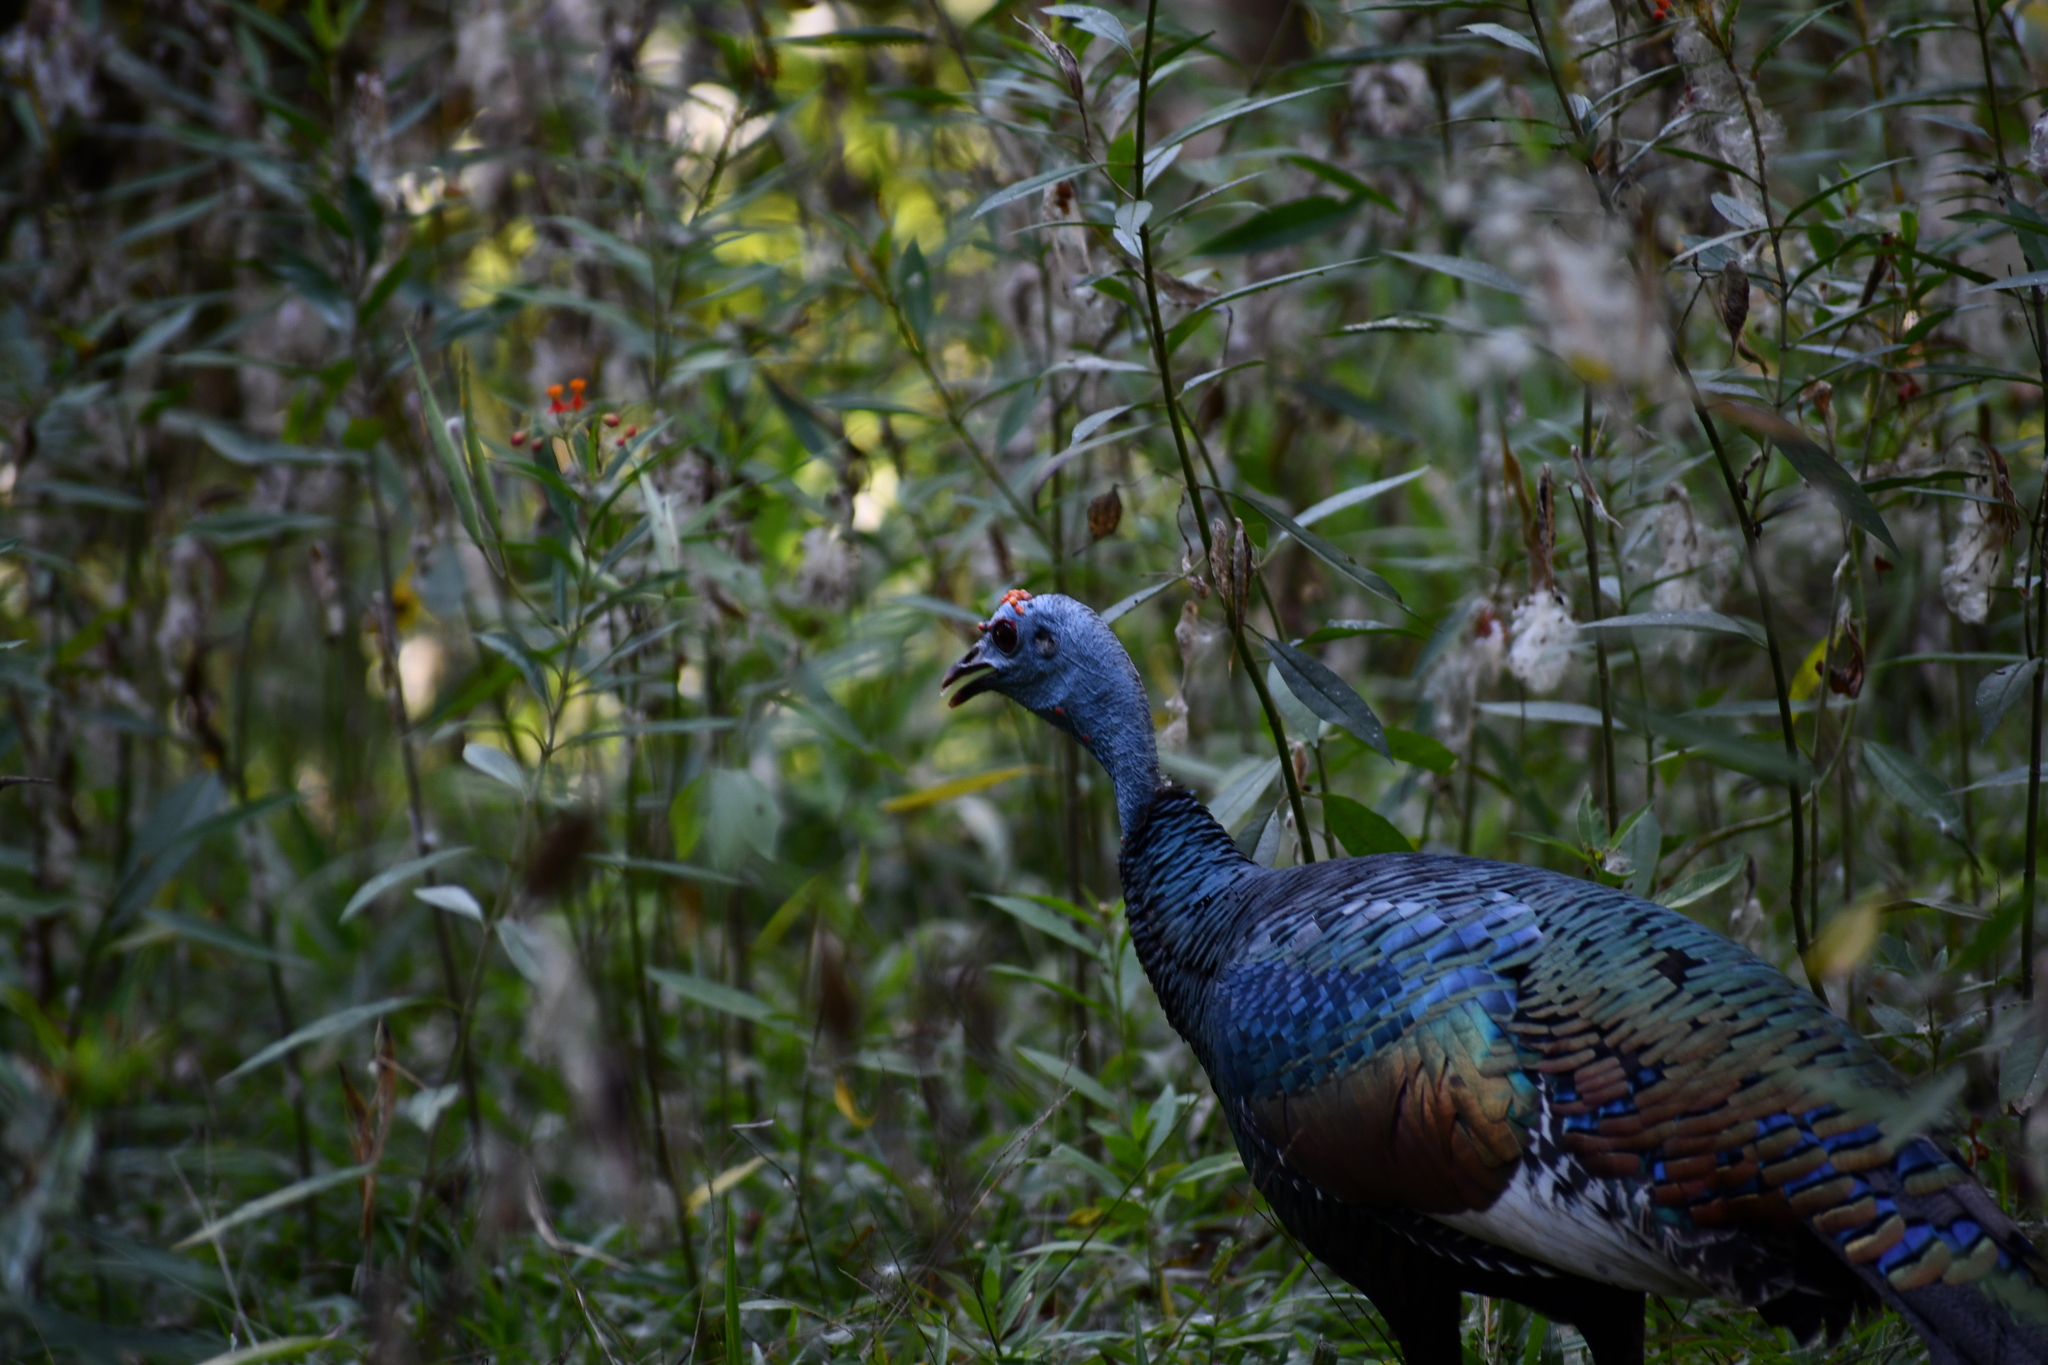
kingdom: Animalia
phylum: Chordata
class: Aves
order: Galliformes
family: Phasianidae
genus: Meleagris
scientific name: Meleagris ocellata
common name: Ocellated turkey
